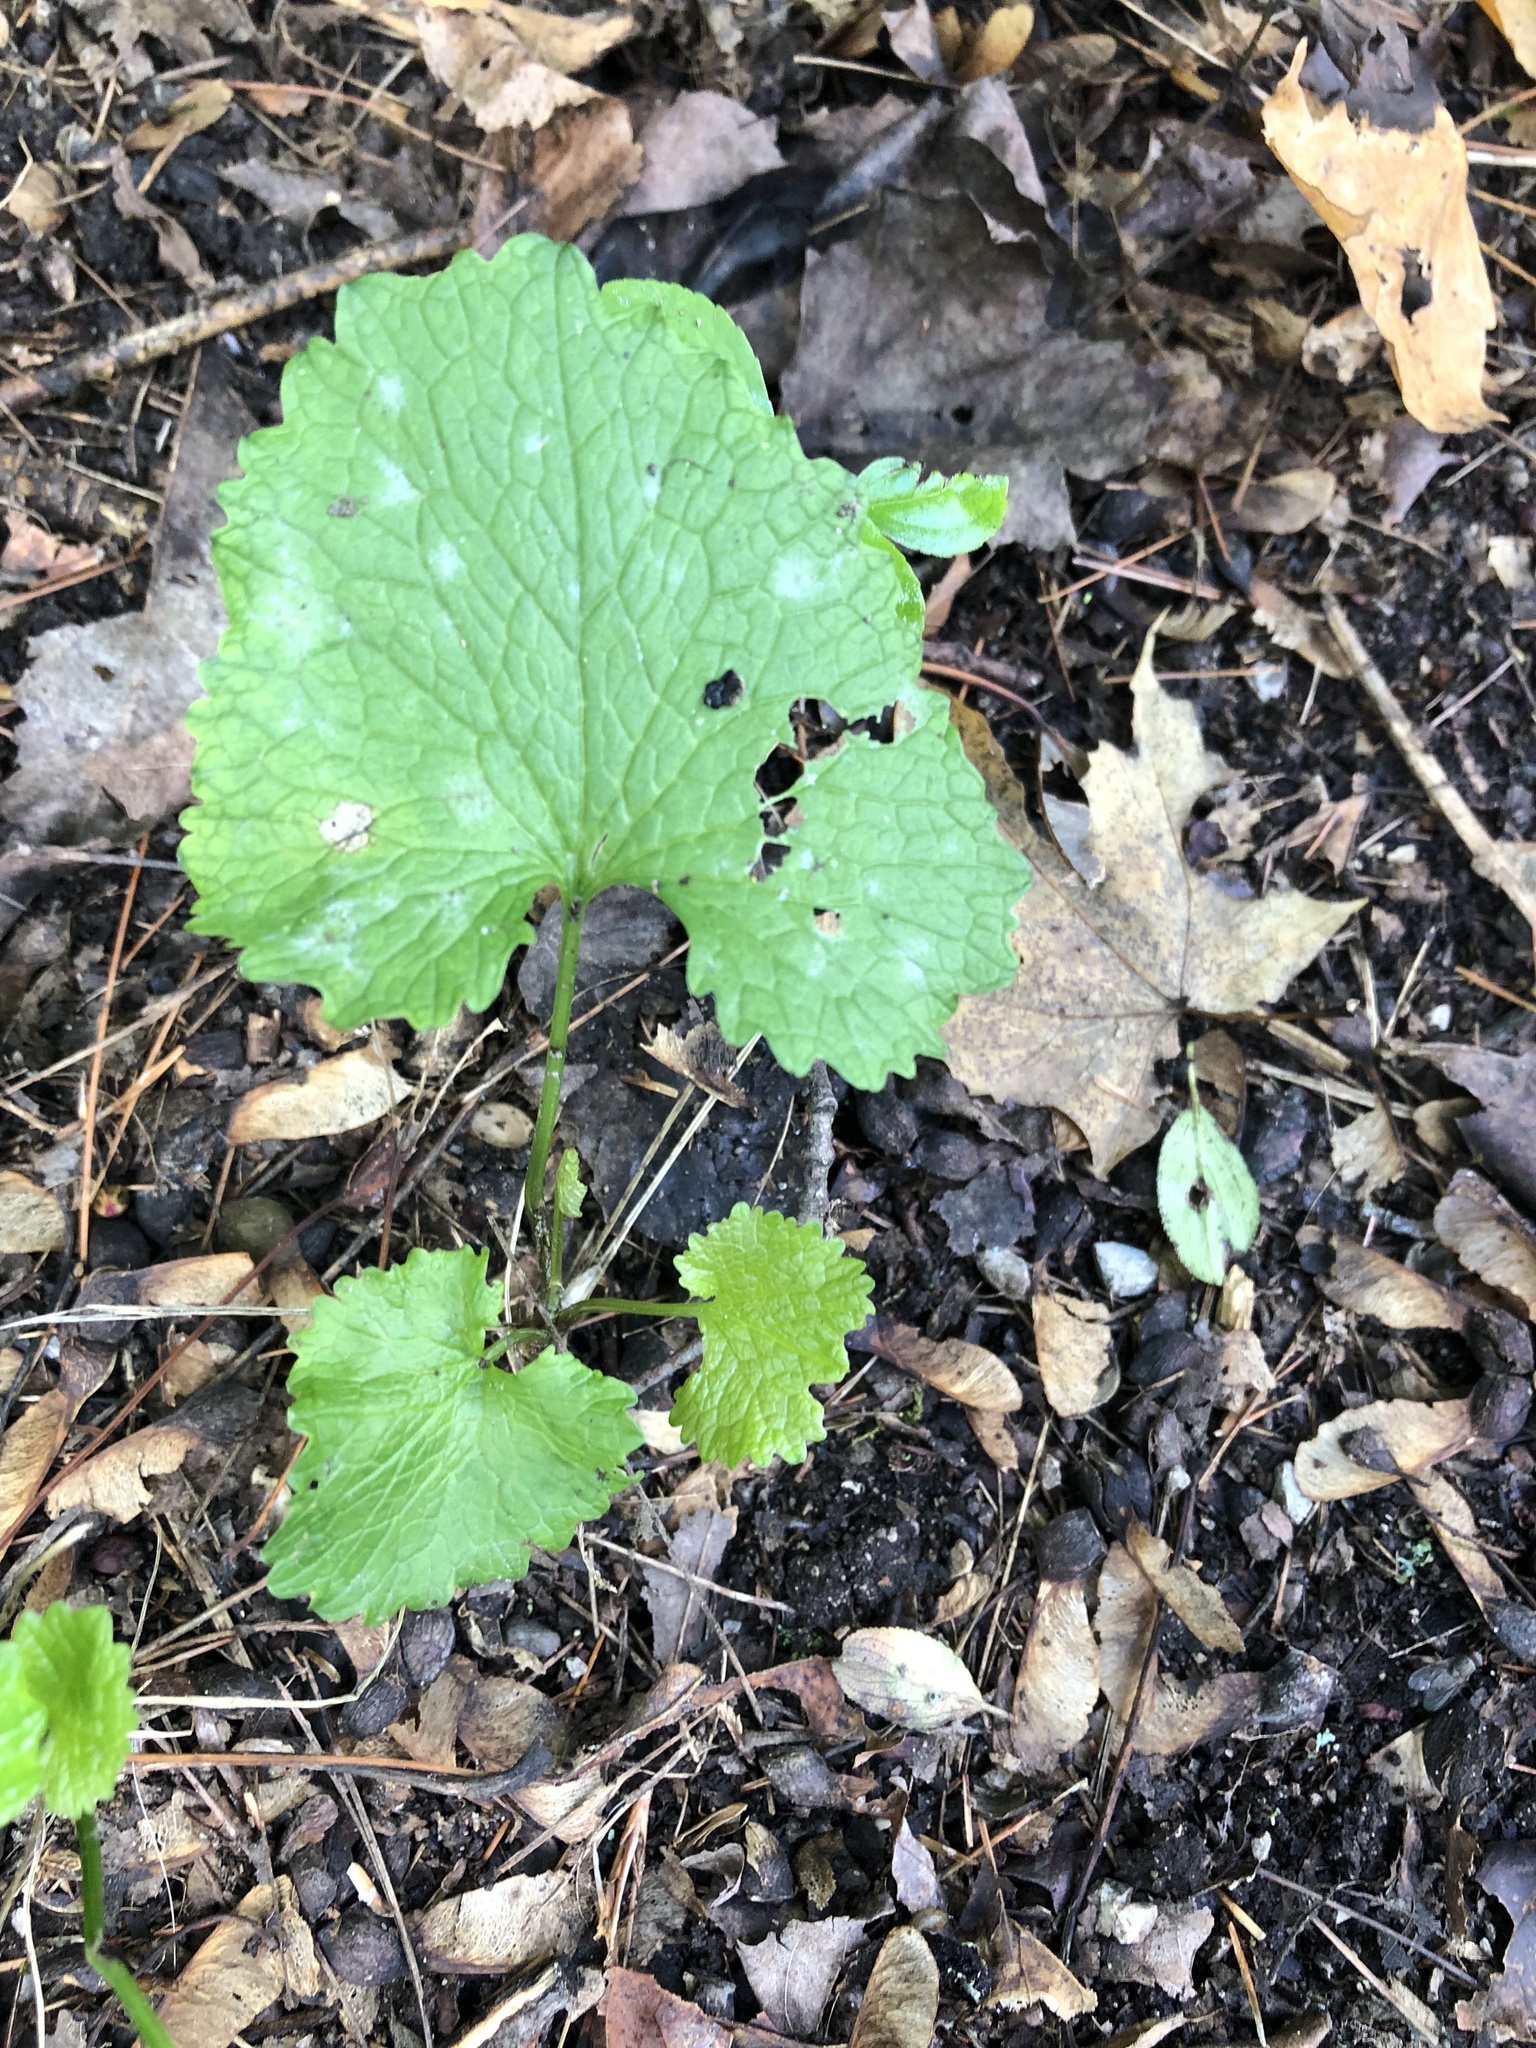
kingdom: Plantae
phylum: Tracheophyta
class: Magnoliopsida
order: Brassicales
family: Brassicaceae
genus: Alliaria
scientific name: Alliaria petiolata
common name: Garlic mustard
